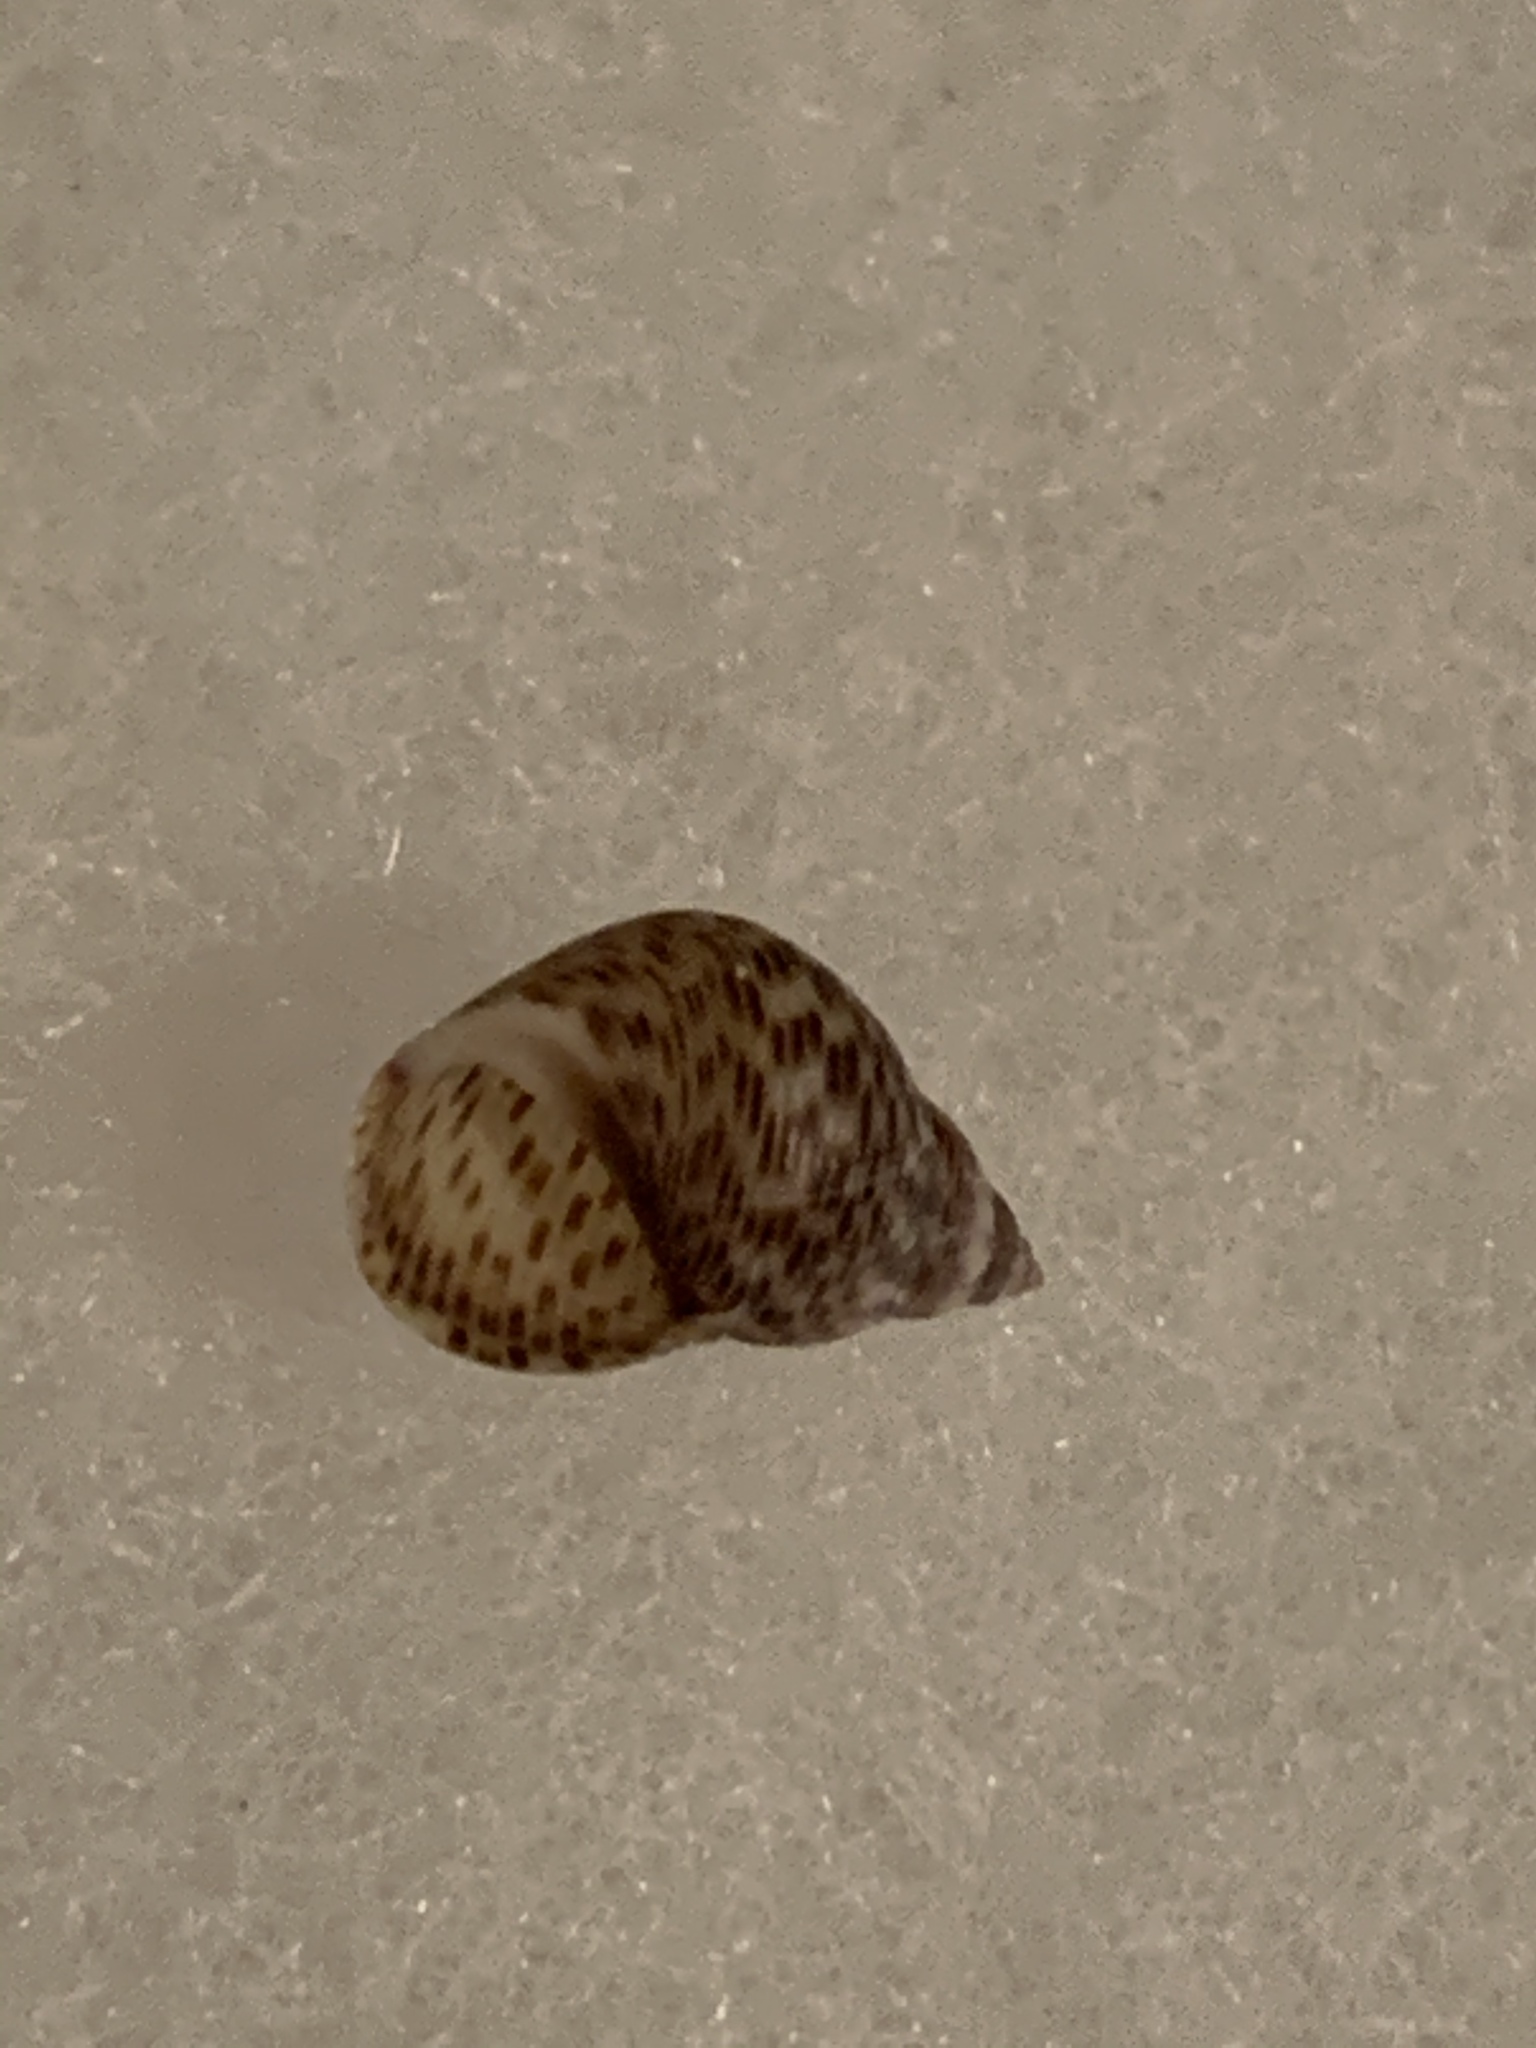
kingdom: Animalia
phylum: Mollusca
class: Gastropoda
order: Littorinimorpha
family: Littorinidae
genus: Littoraria
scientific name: Littoraria angulifera
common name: Mangrove periwinkle
